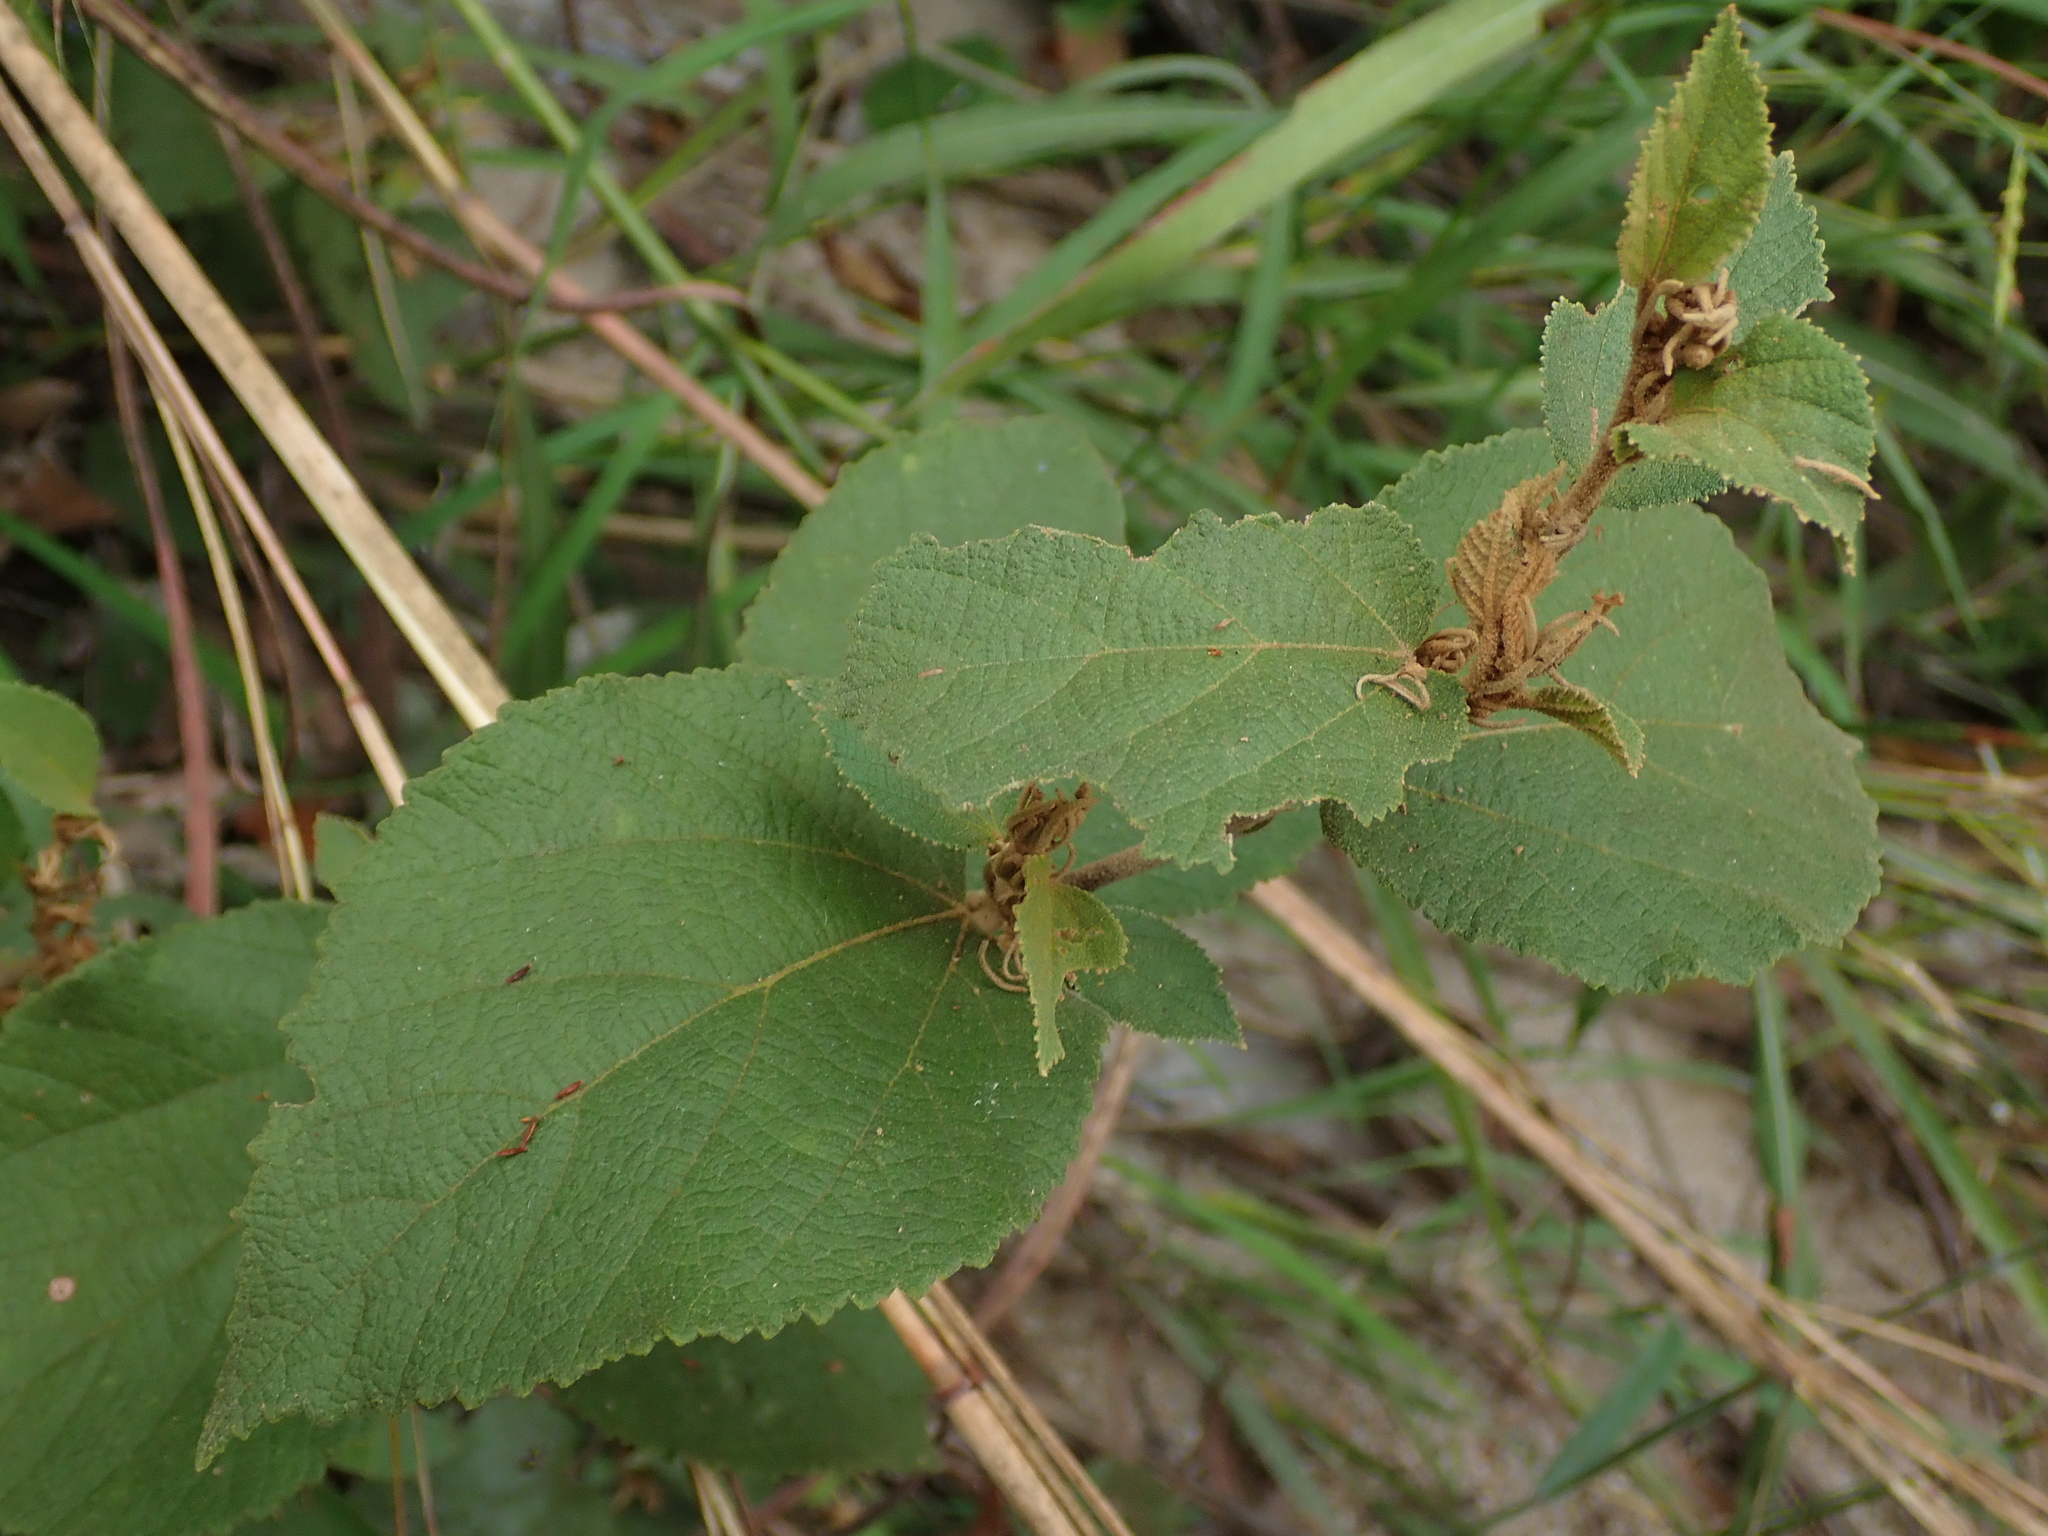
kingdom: Plantae
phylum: Tracheophyta
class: Magnoliopsida
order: Malvales
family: Malvaceae
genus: Helicteres
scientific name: Helicteres brevispira
